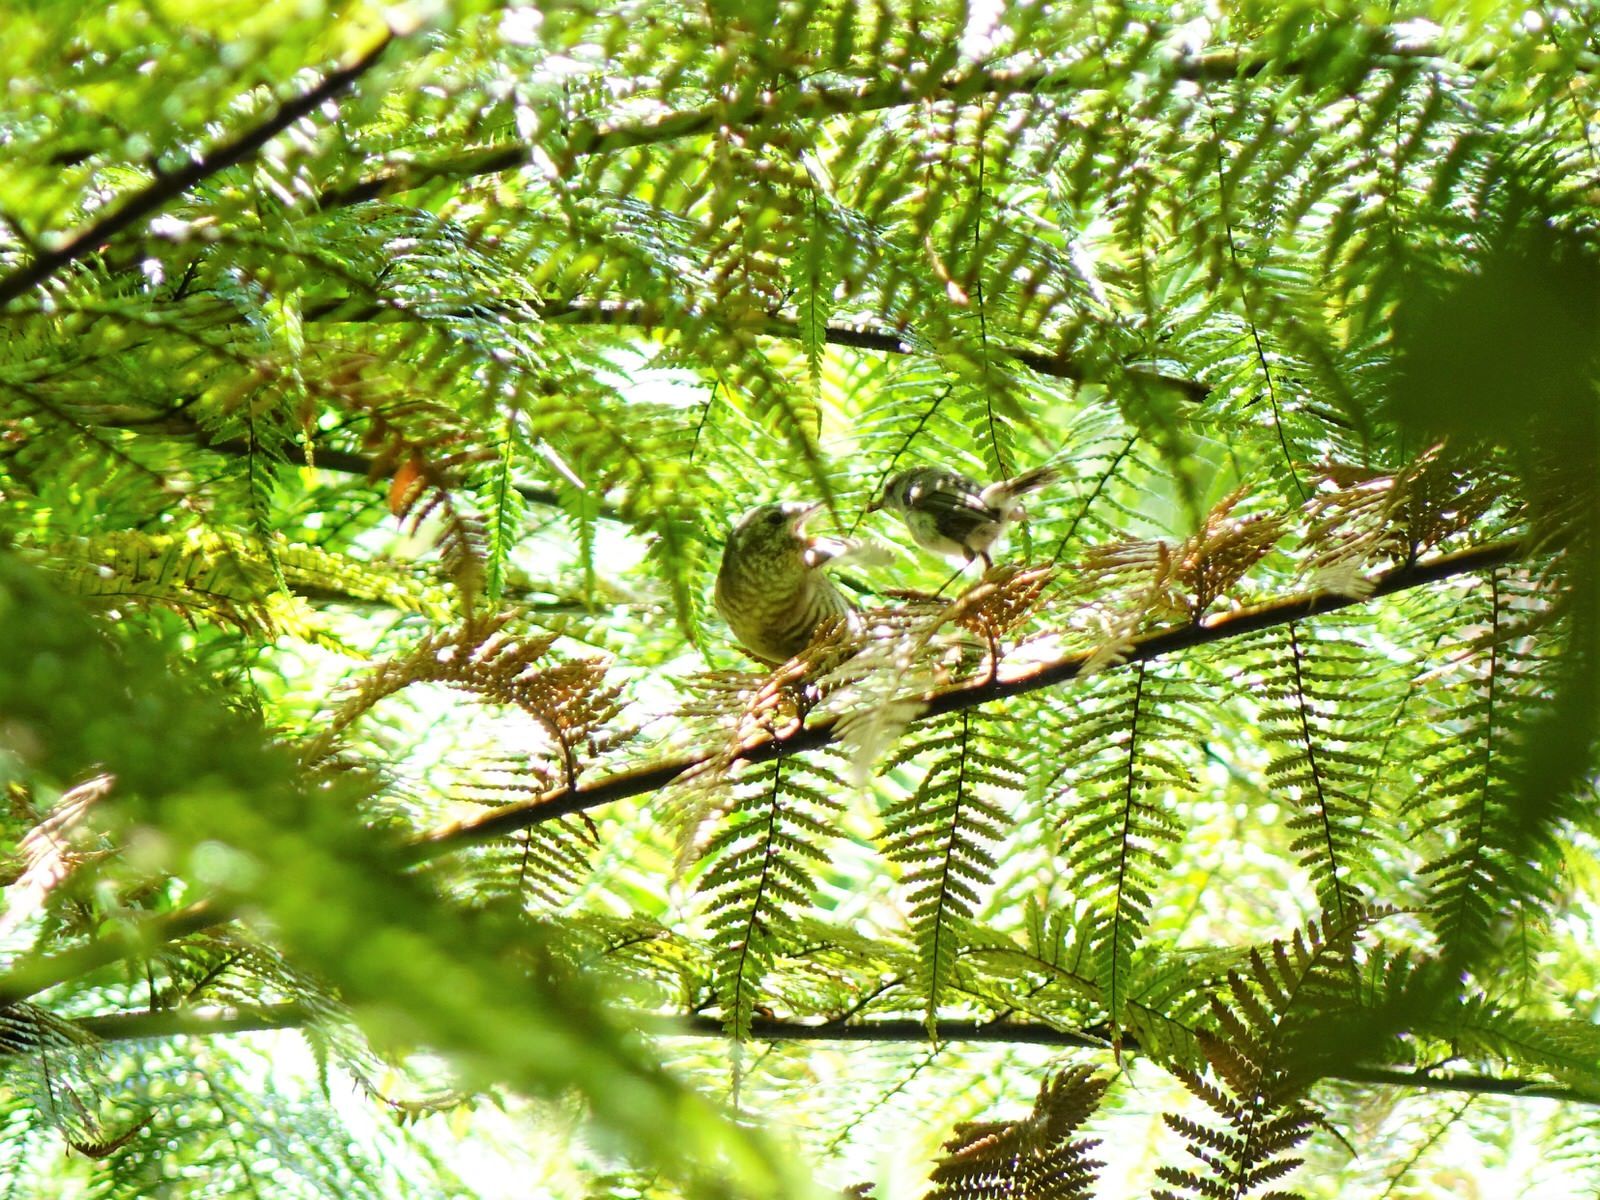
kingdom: Animalia
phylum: Chordata
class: Aves
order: Passeriformes
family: Acanthizidae
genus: Gerygone
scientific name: Gerygone igata
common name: Grey gerygone
